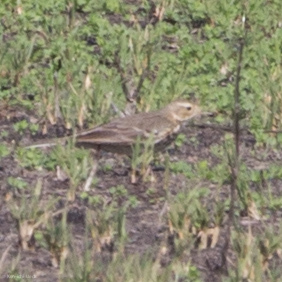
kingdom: Animalia
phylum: Chordata
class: Aves
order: Passeriformes
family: Motacillidae
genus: Anthus
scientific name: Anthus rubescens
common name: Buff-bellied pipit
